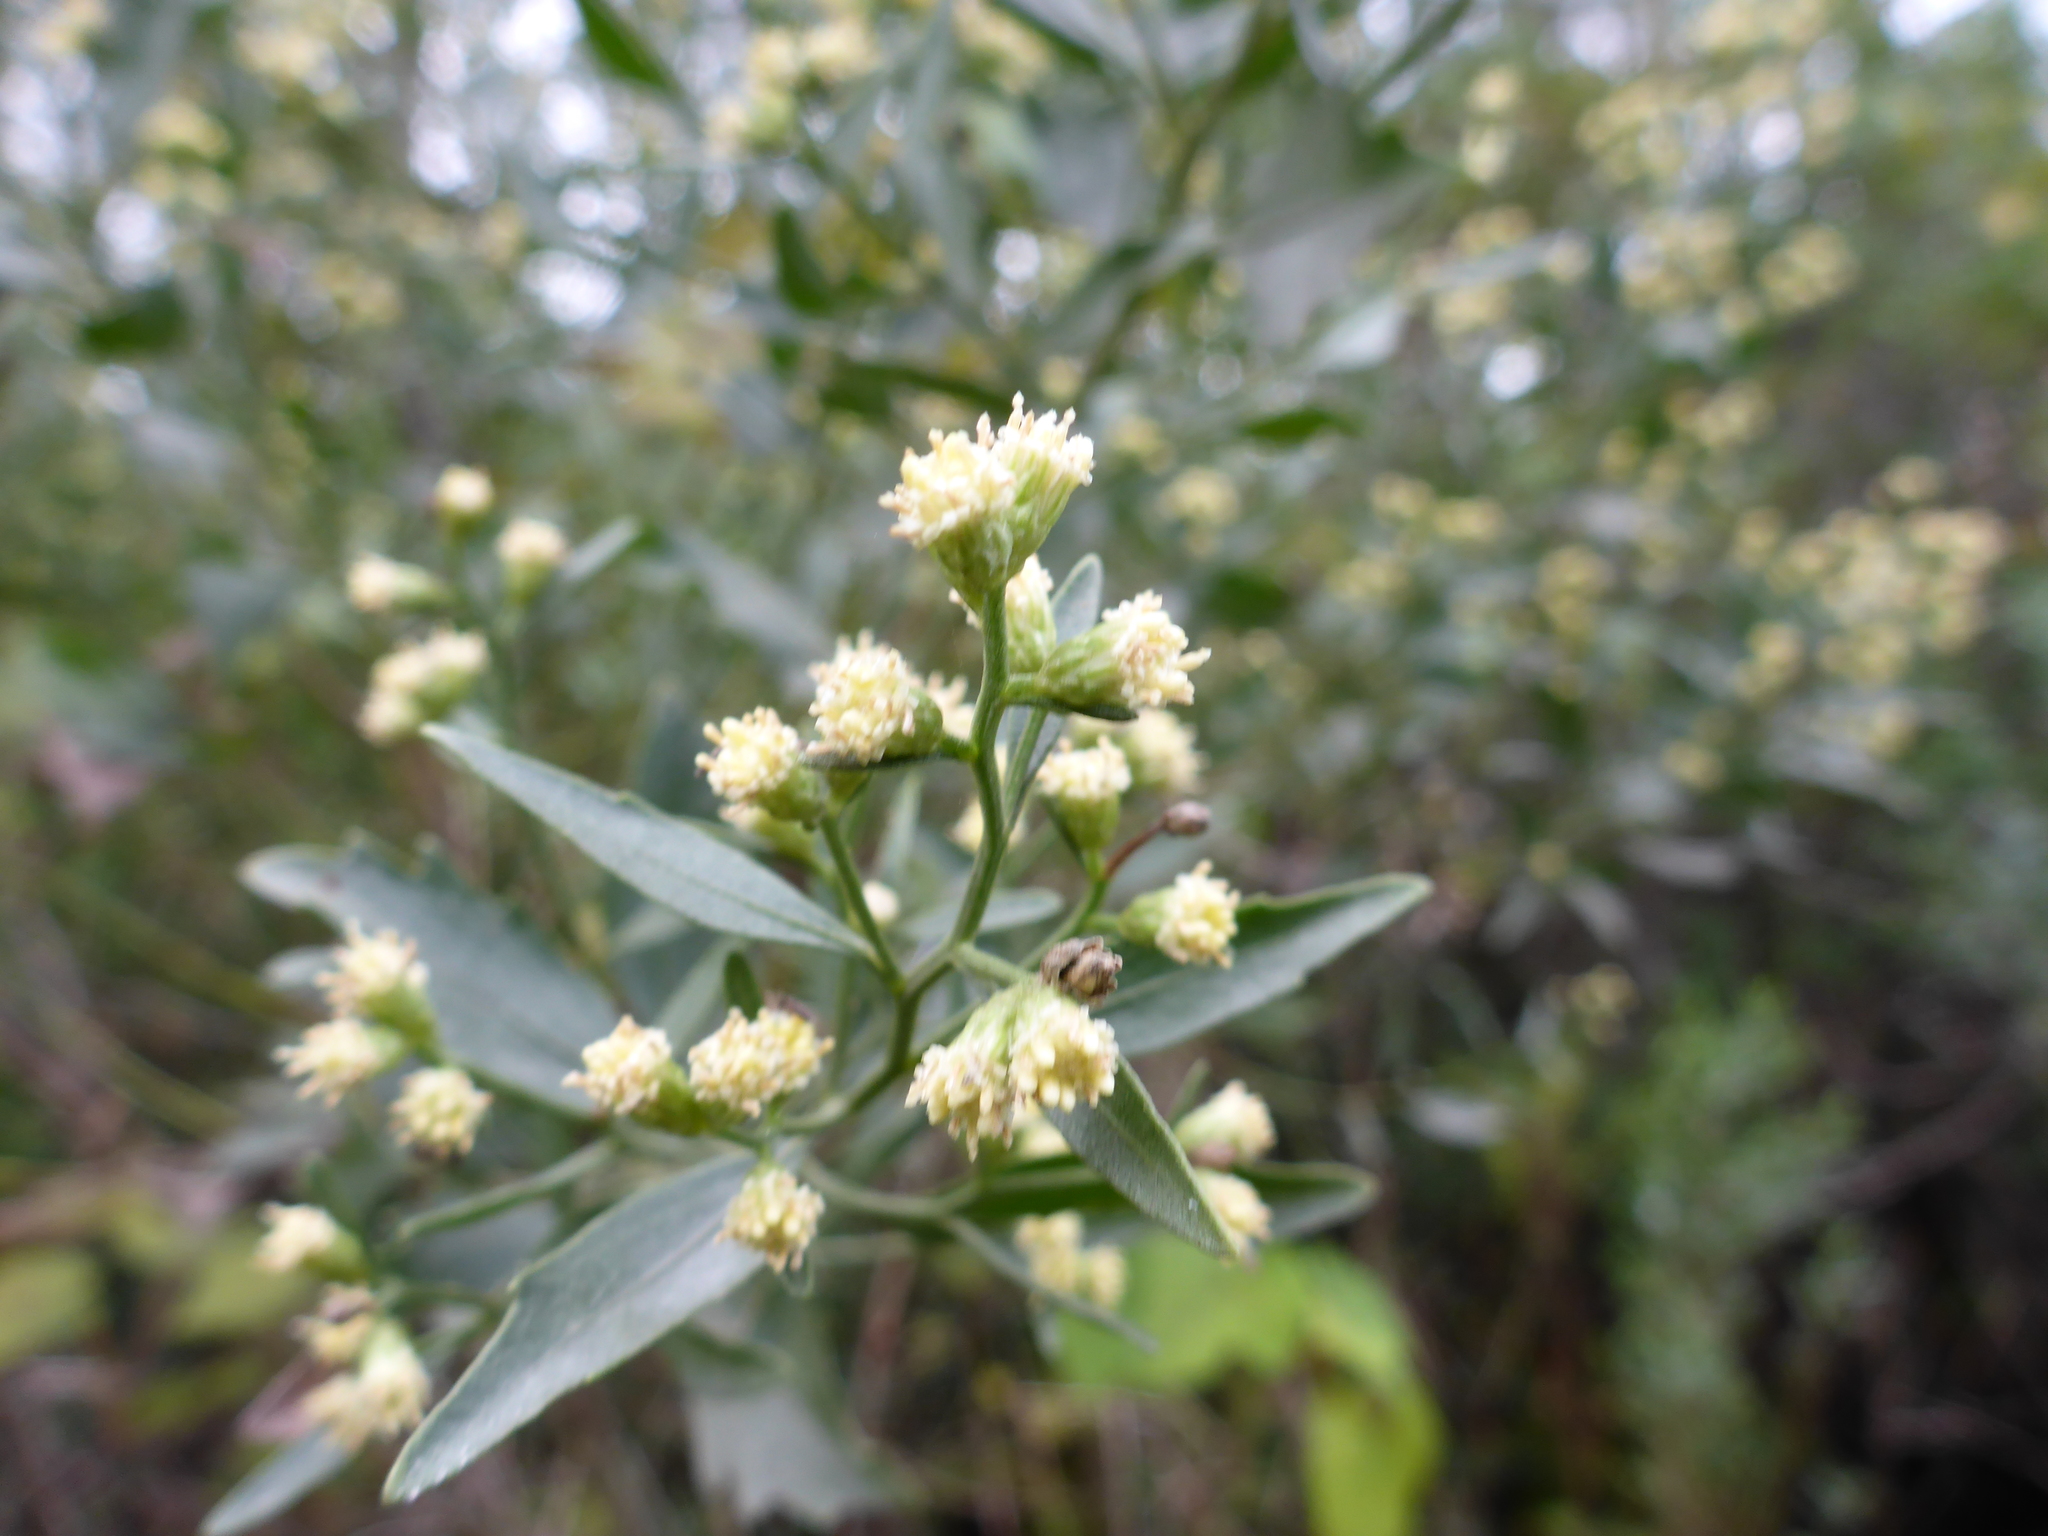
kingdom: Plantae
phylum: Tracheophyta
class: Magnoliopsida
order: Asterales
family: Asteraceae
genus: Baccharis
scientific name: Baccharis glomeruliflora
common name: Silverling groundsel bush
